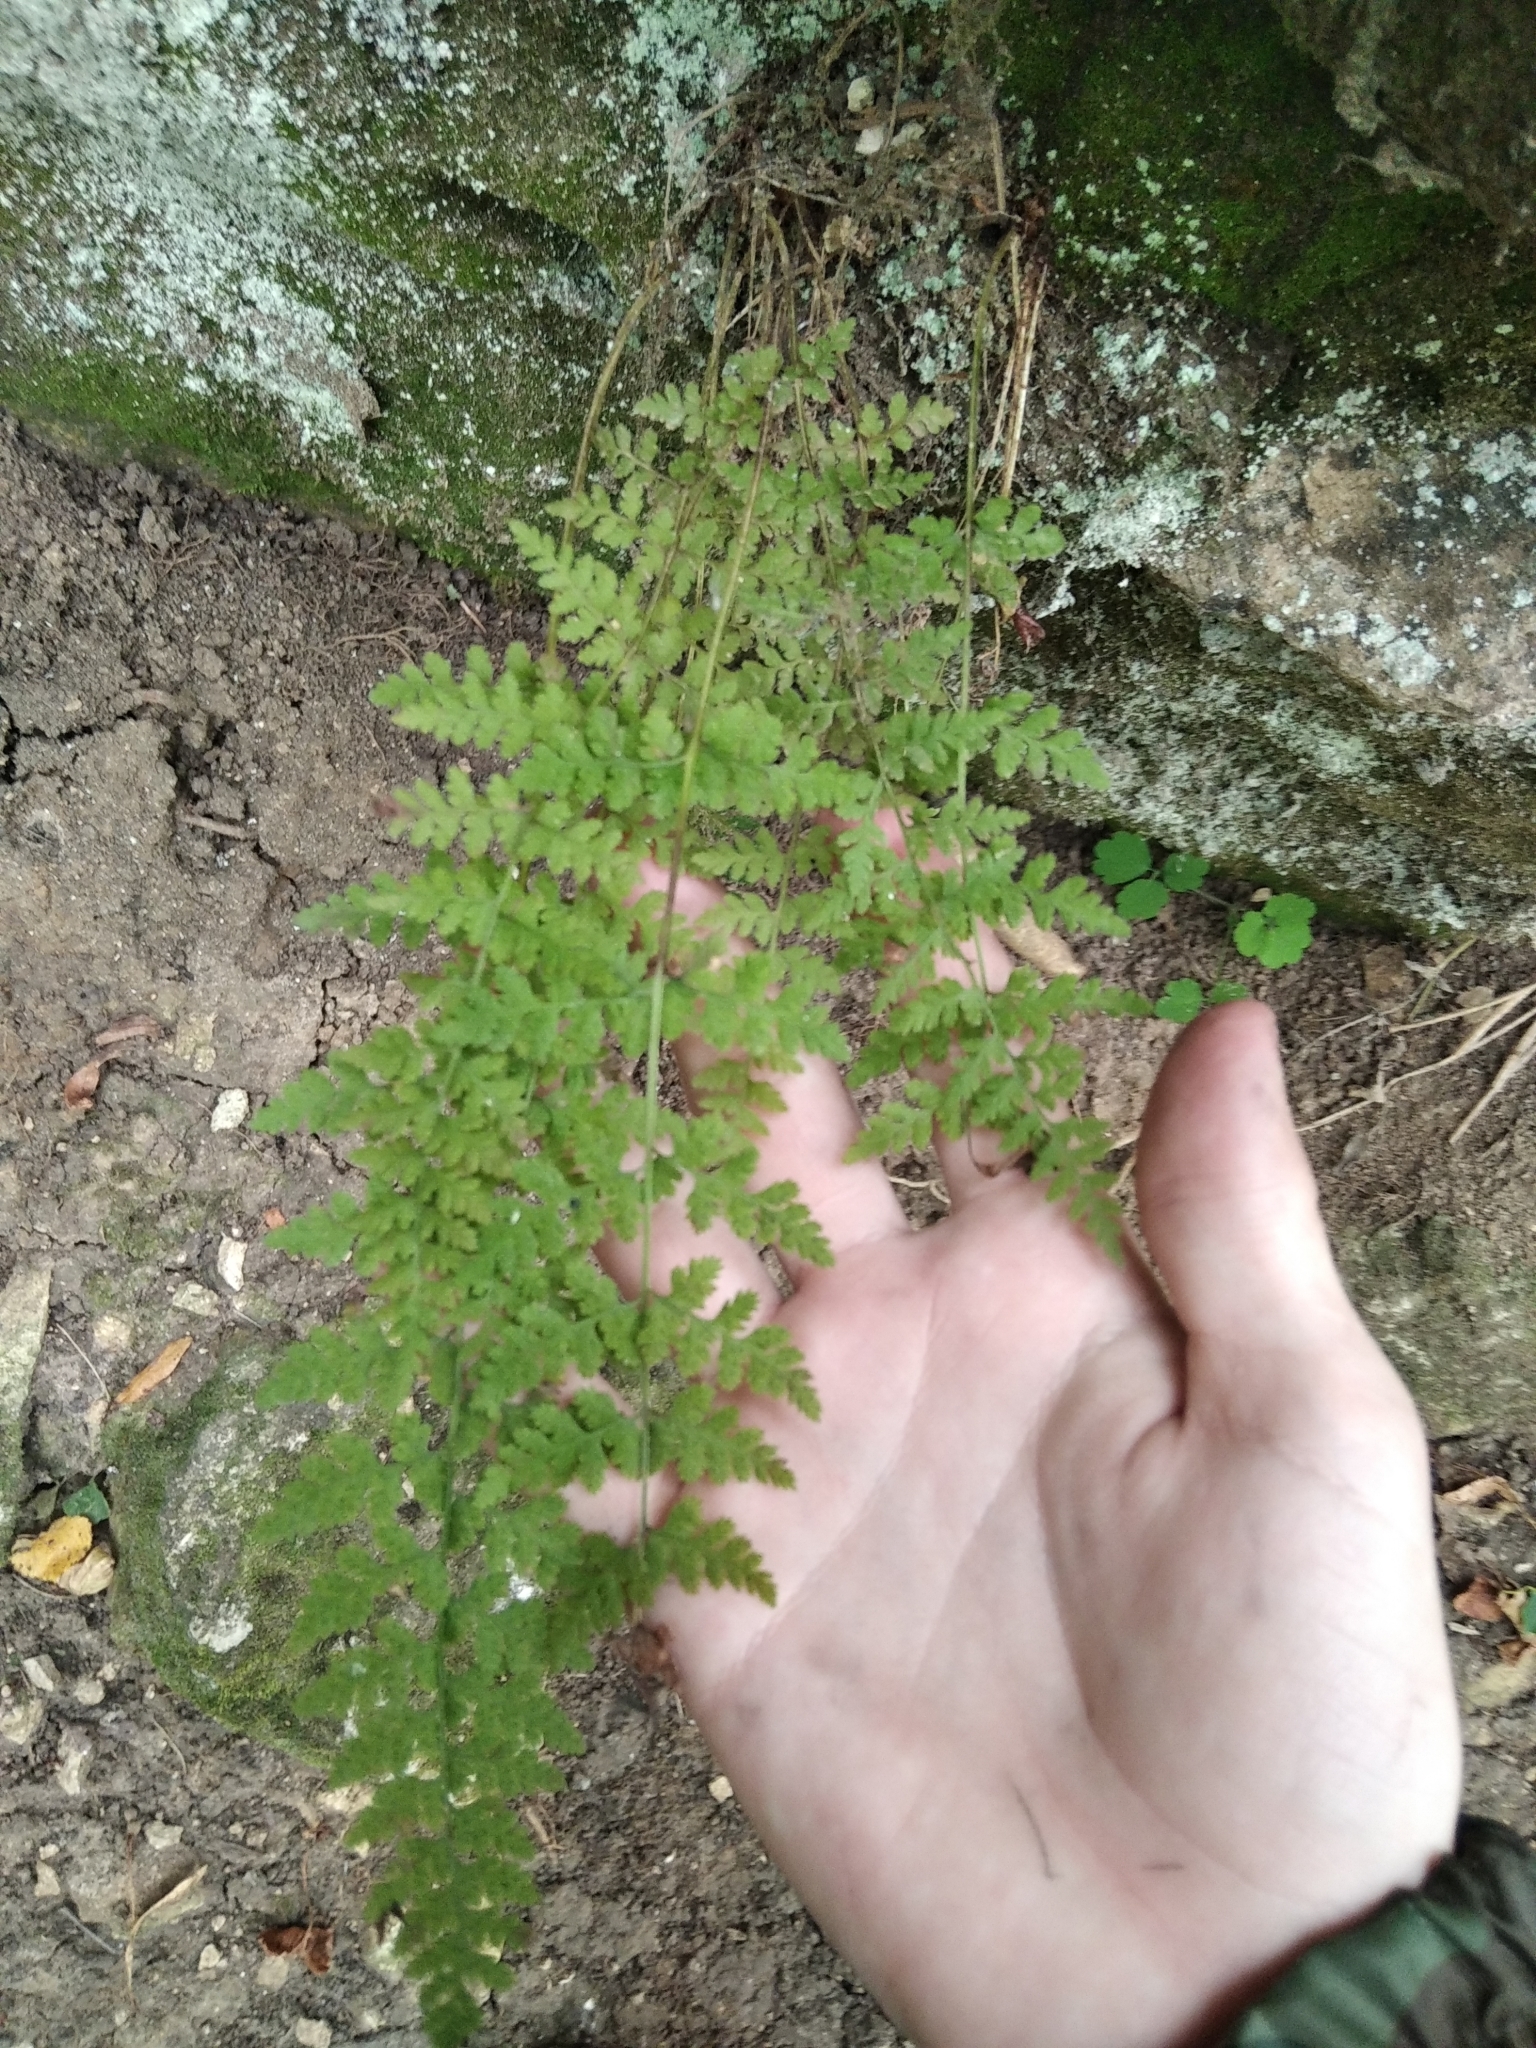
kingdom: Plantae
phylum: Tracheophyta
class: Polypodiopsida
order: Polypodiales
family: Cystopteridaceae
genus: Cystopteris
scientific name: Cystopteris fragilis
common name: Brittle bladder fern
